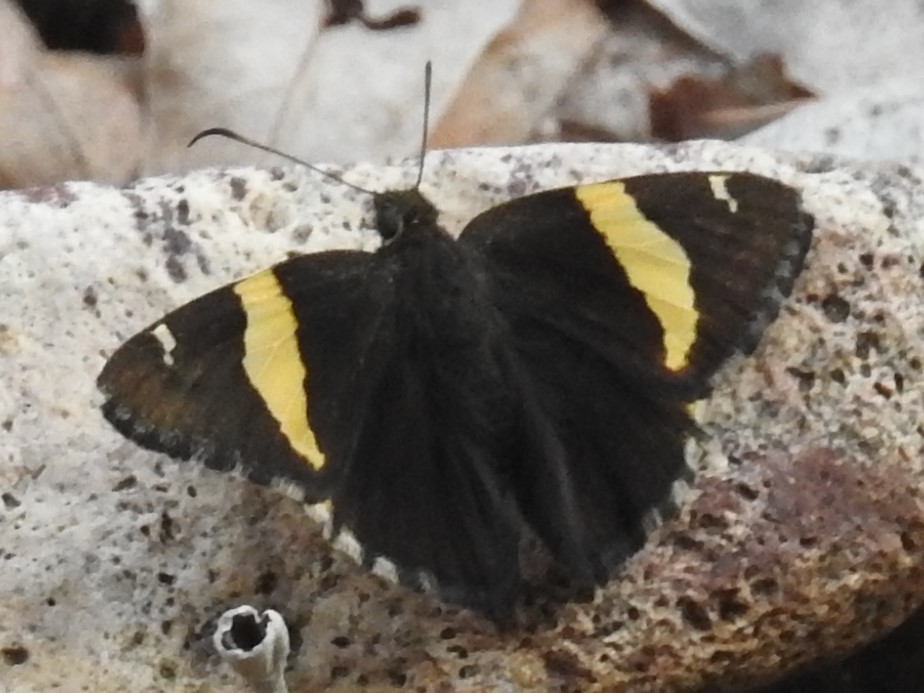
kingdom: Animalia
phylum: Arthropoda
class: Arachnida
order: Scorpiones
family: Bothriuridae
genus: Telegonus
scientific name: Telegonus cellus
